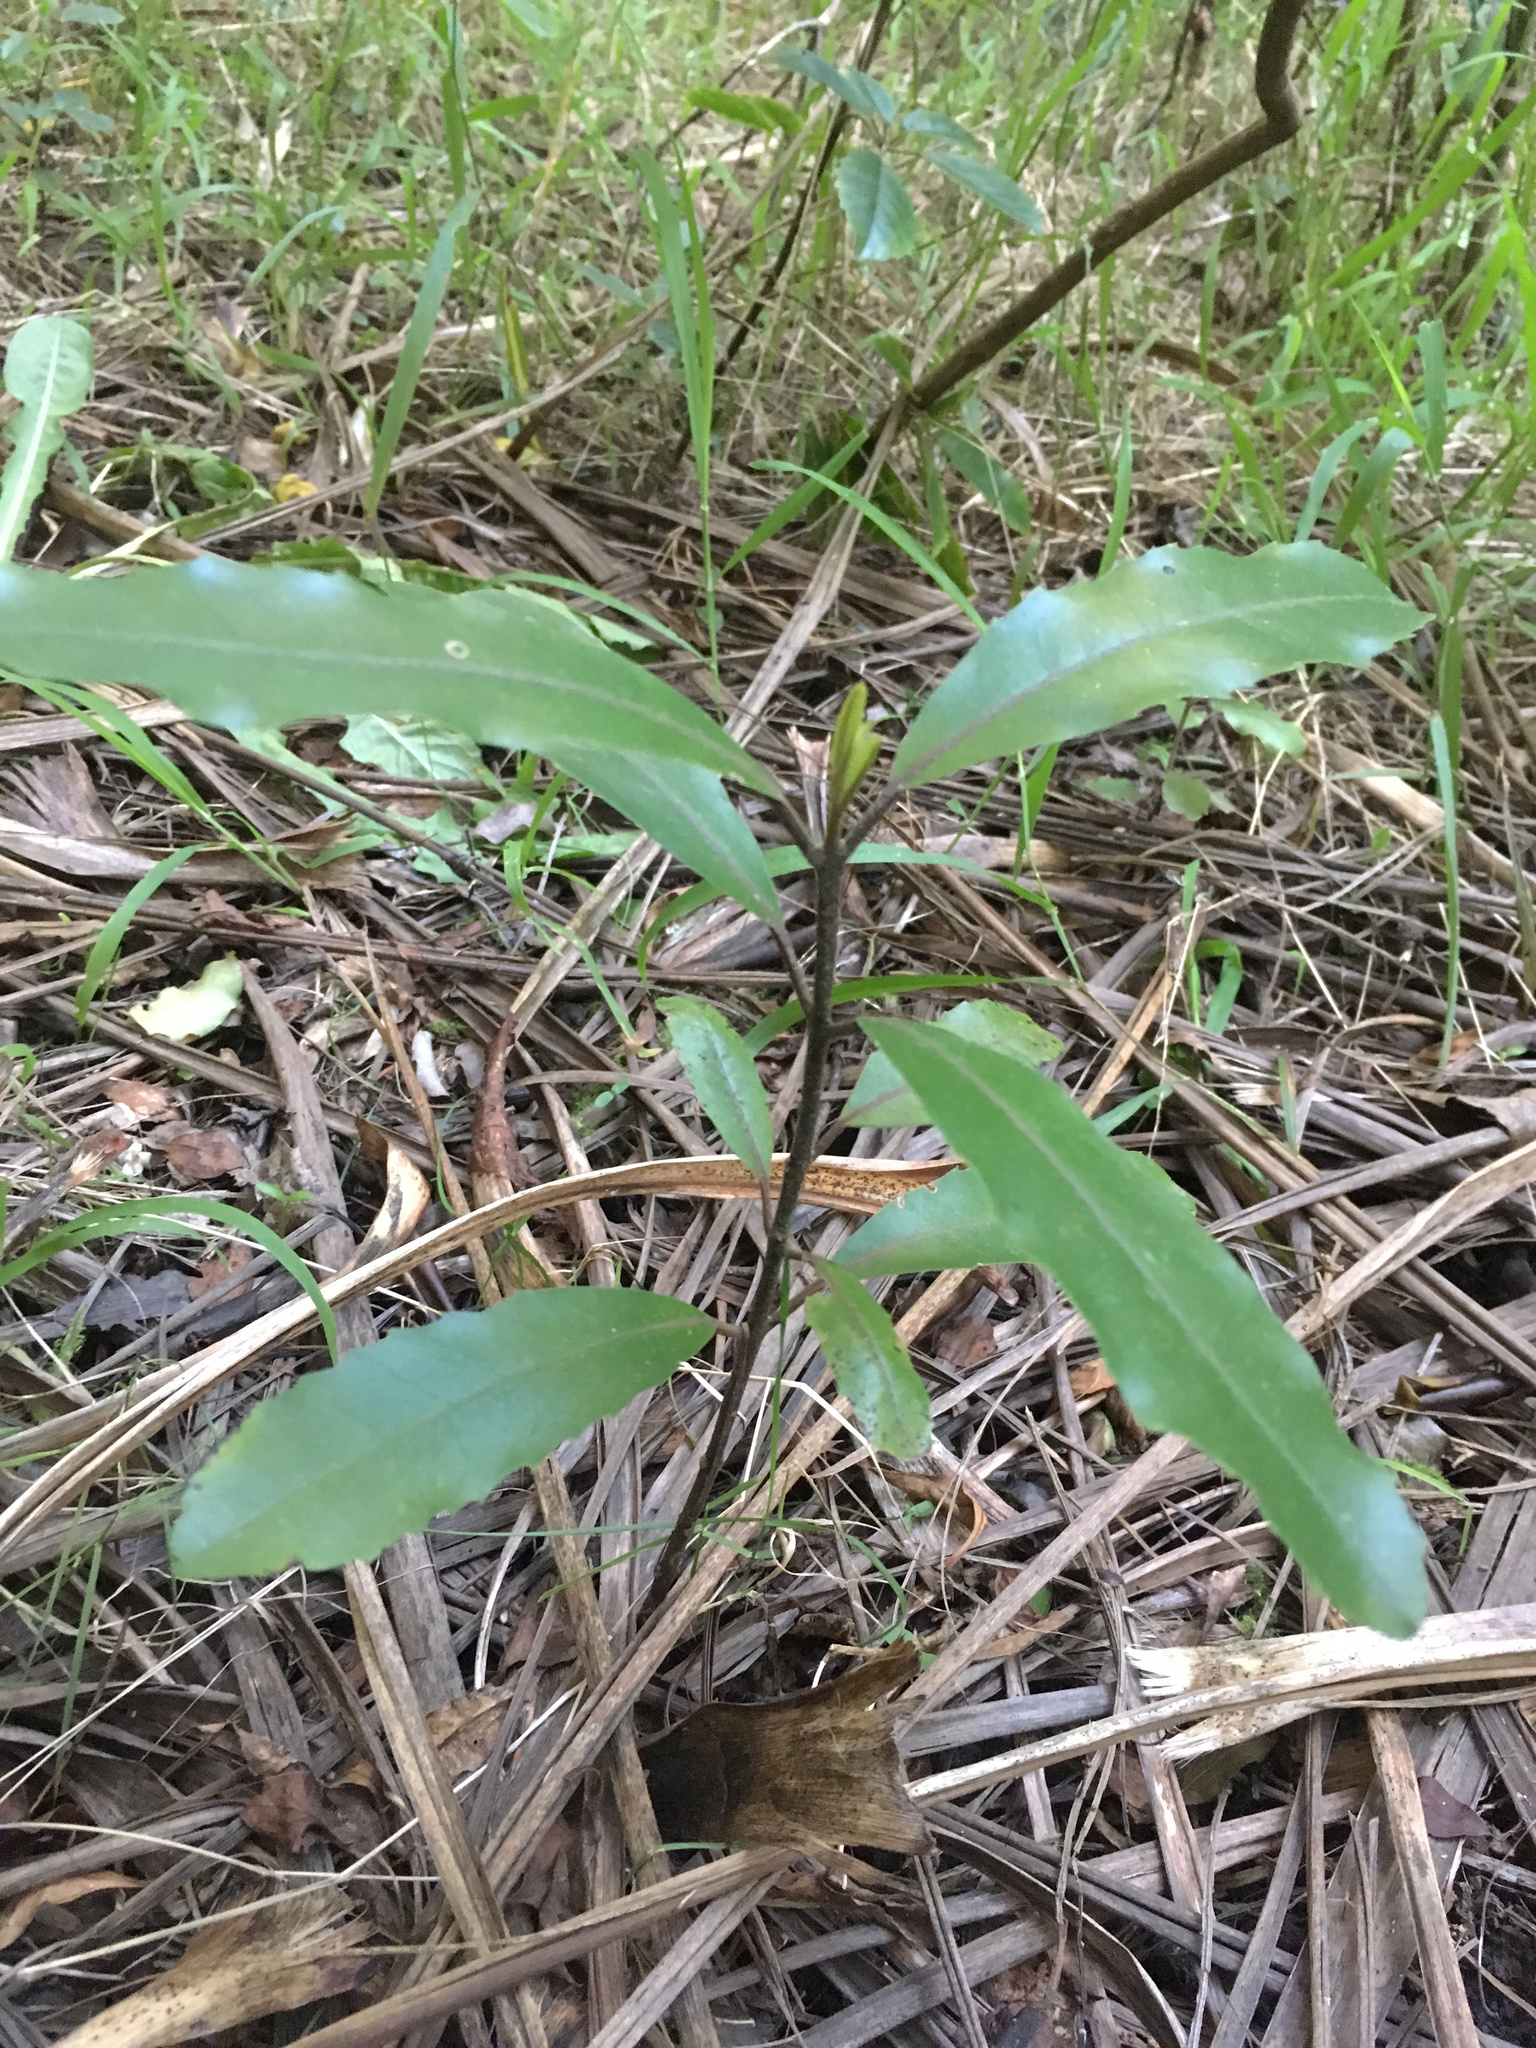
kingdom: Plantae
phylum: Tracheophyta
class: Magnoliopsida
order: Laurales
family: Monimiaceae
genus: Hedycarya
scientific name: Hedycarya arborea
